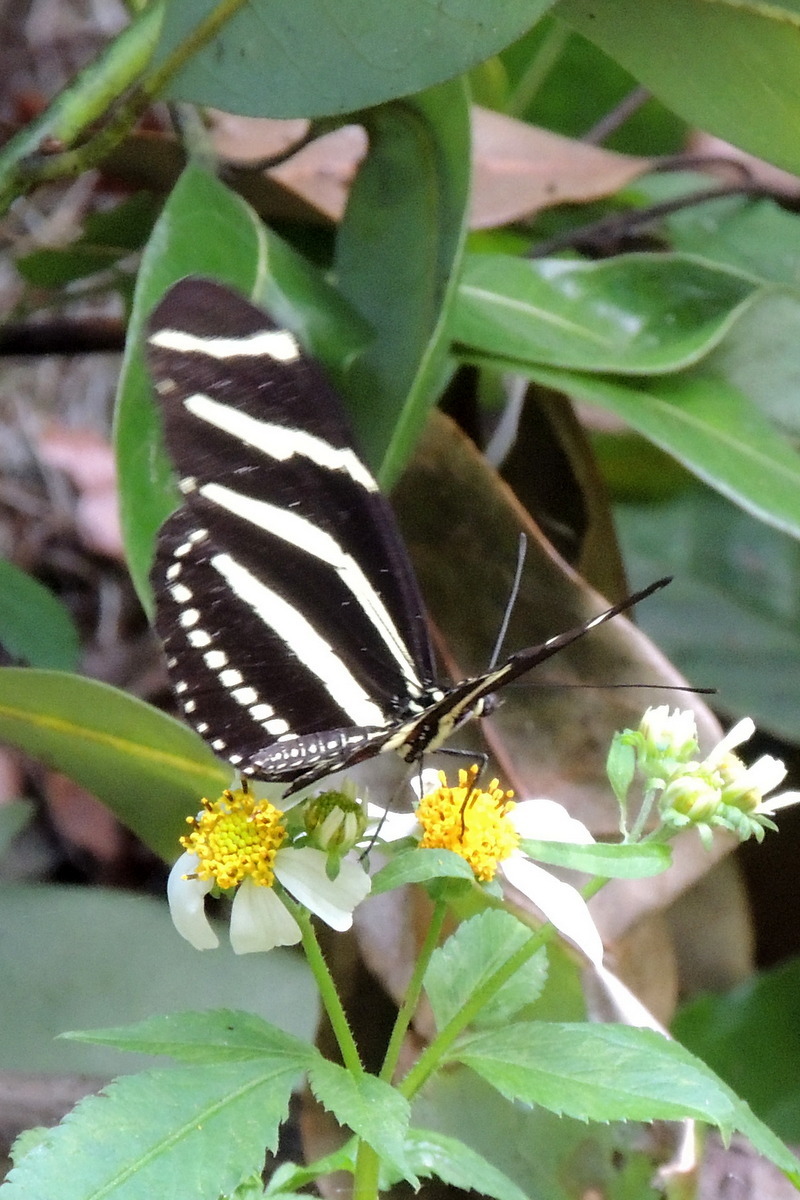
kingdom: Animalia
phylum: Arthropoda
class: Insecta
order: Lepidoptera
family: Nymphalidae
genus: Heliconius
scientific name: Heliconius charithonia
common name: Zebra long wing
